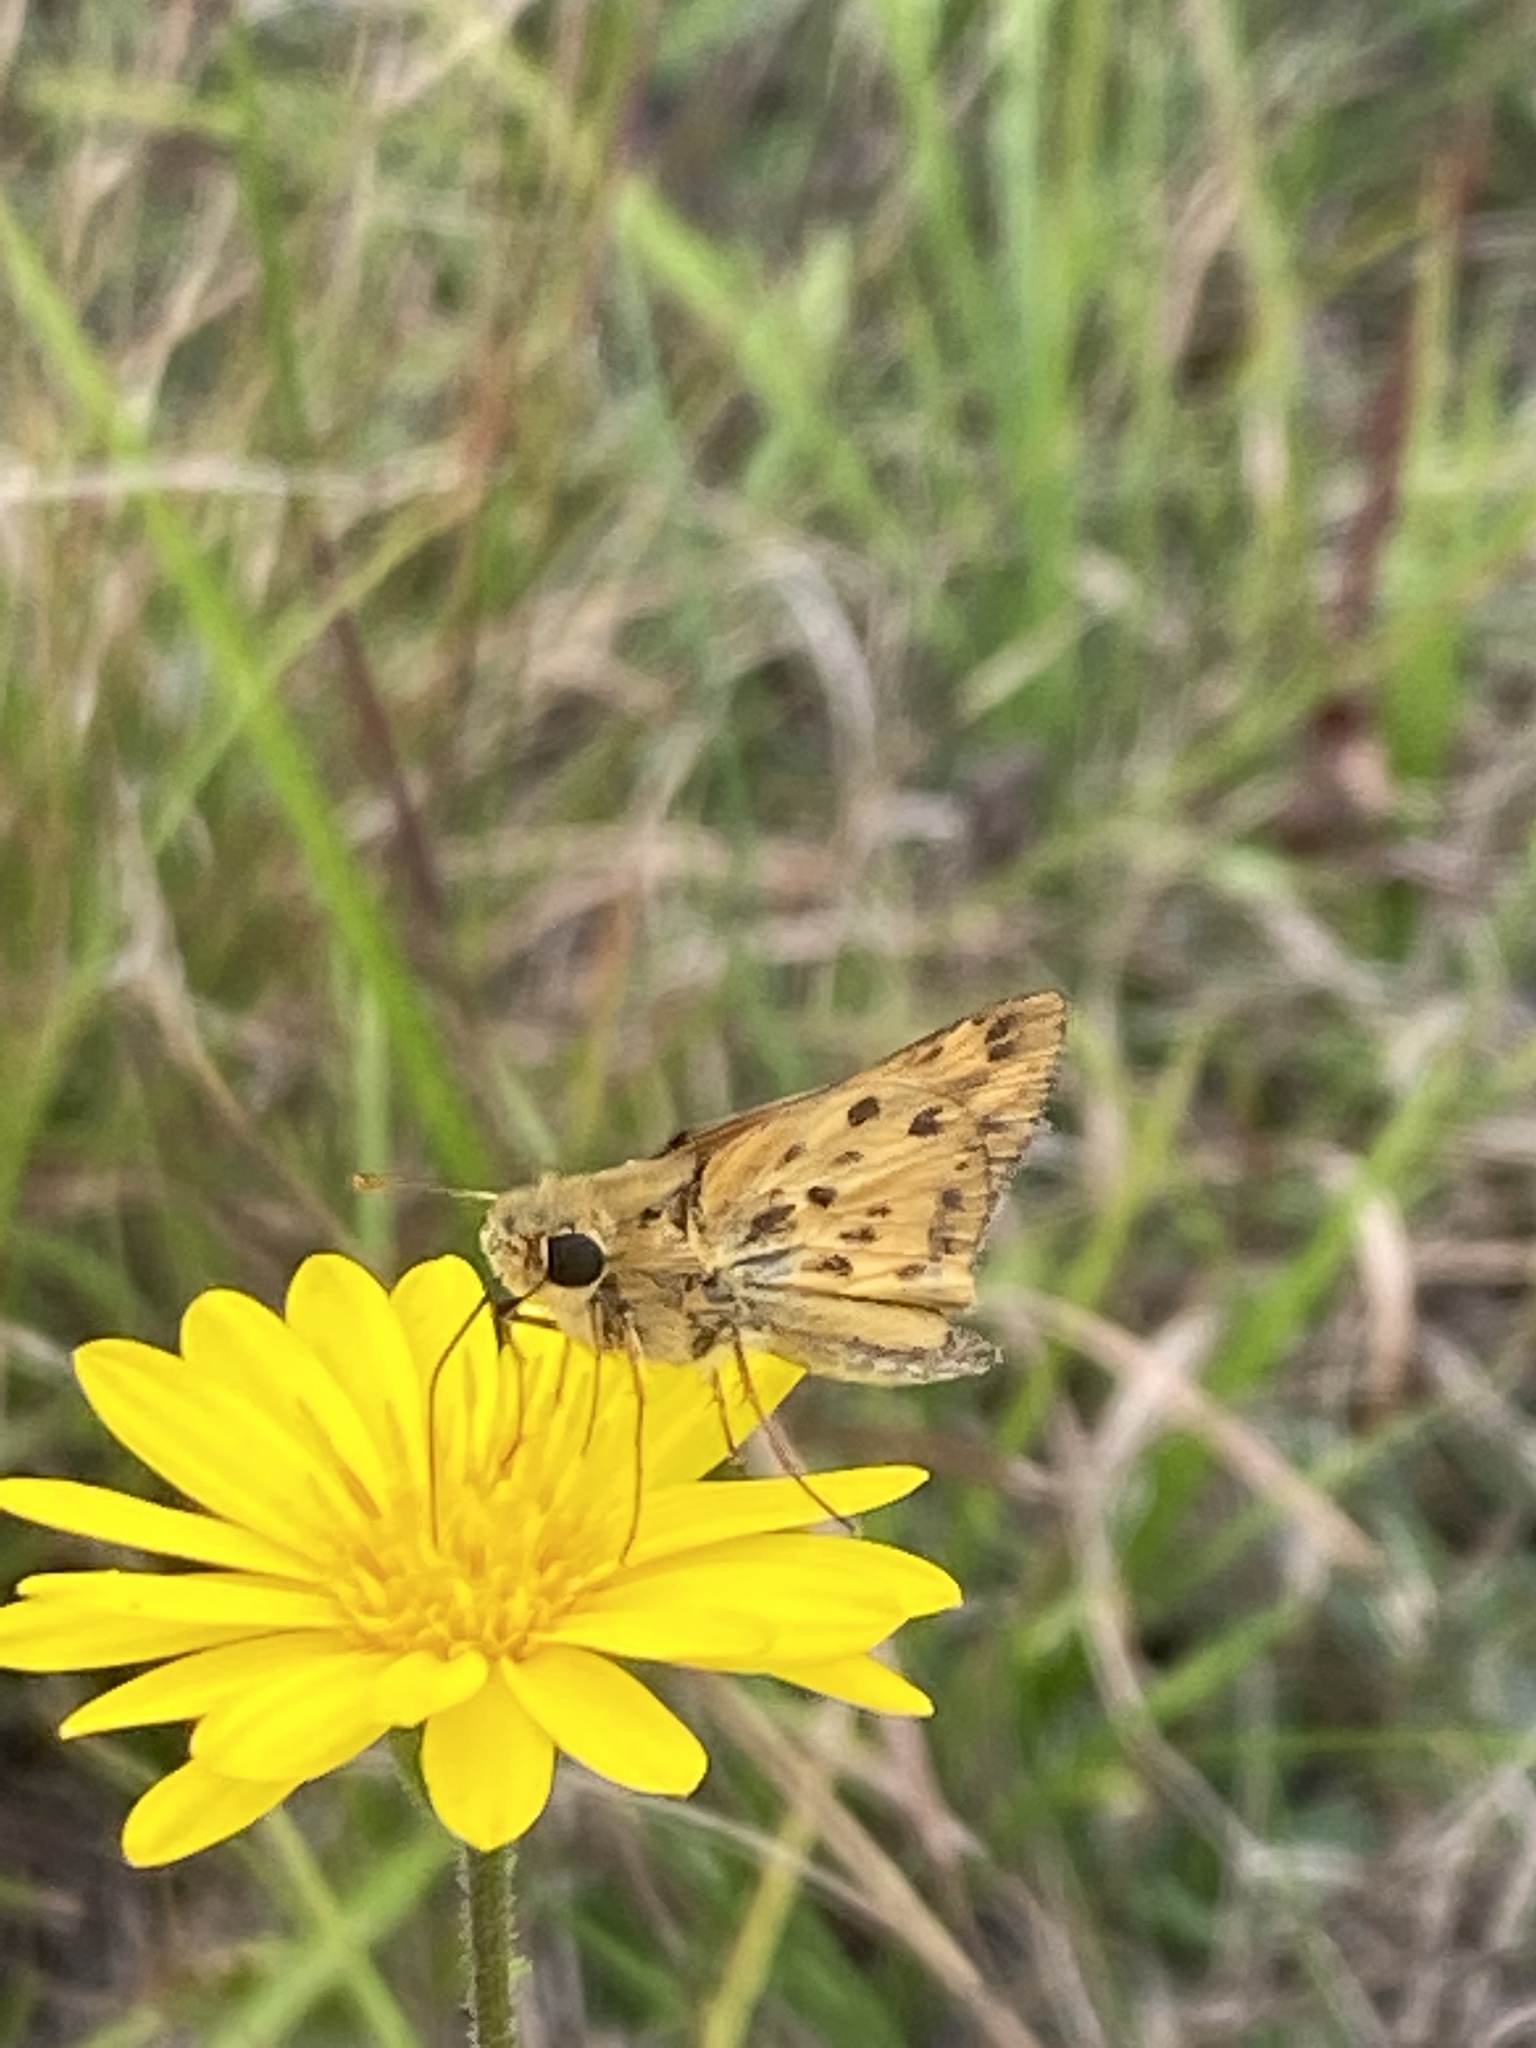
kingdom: Animalia
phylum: Arthropoda
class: Insecta
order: Lepidoptera
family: Hesperiidae
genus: Hylephila
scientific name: Hylephila phyleus
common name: Fiery skipper
